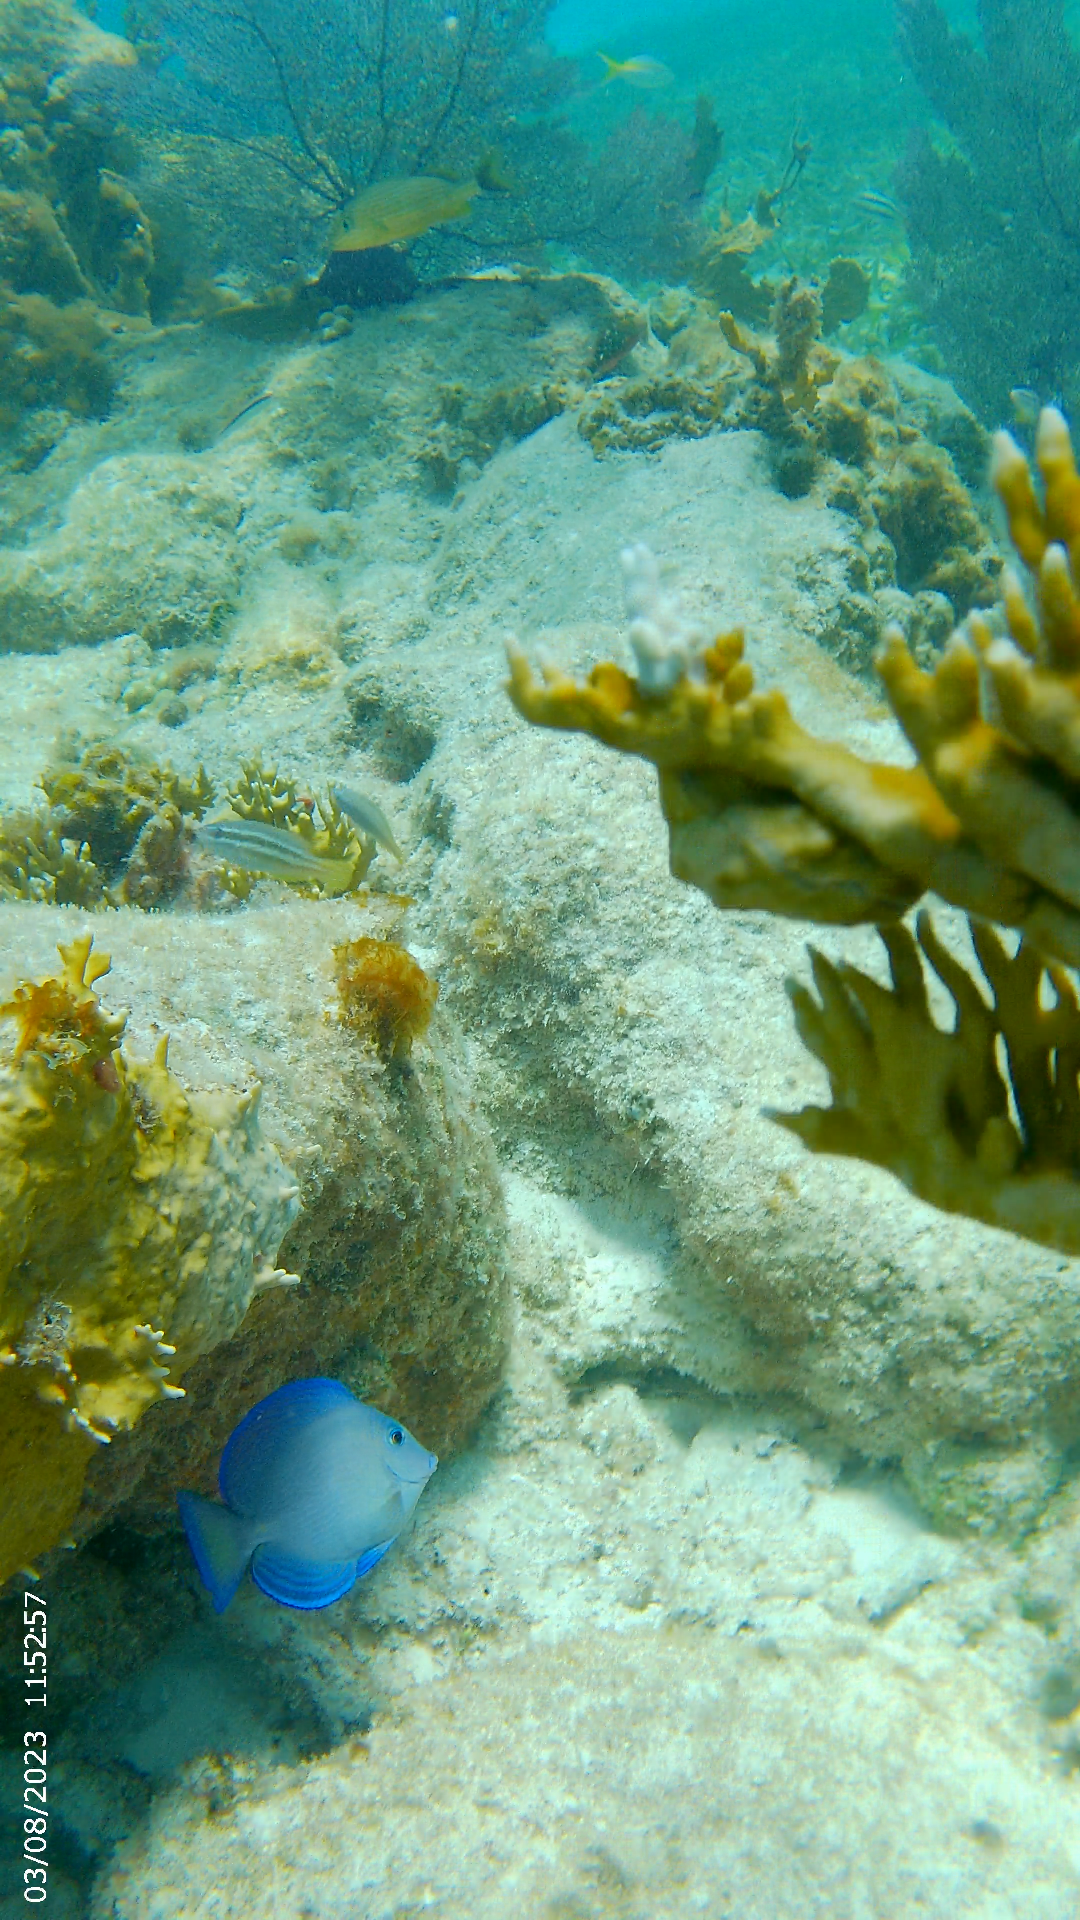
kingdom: Animalia
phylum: Chordata
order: Perciformes
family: Scaridae
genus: Scarus
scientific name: Scarus iseri
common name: Striped parrotfish
